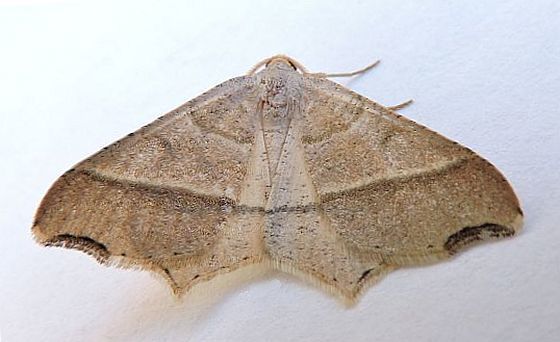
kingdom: Animalia
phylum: Arthropoda
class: Insecta
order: Lepidoptera
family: Geometridae
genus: Macaria
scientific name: Macaria metanemaria
